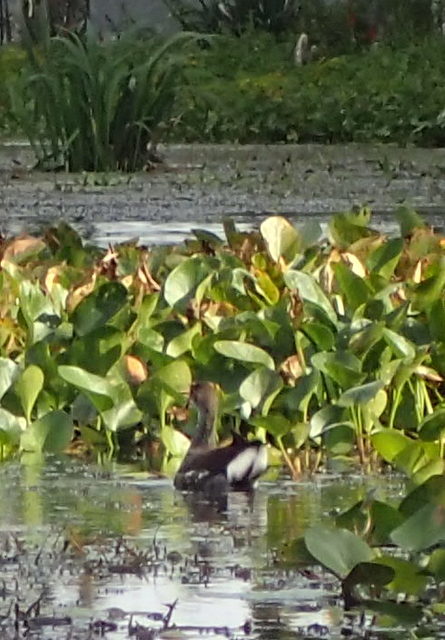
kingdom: Animalia
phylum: Chordata
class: Aves
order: Gruiformes
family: Rallidae
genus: Gallinula
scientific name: Gallinula chloropus
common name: Common moorhen
